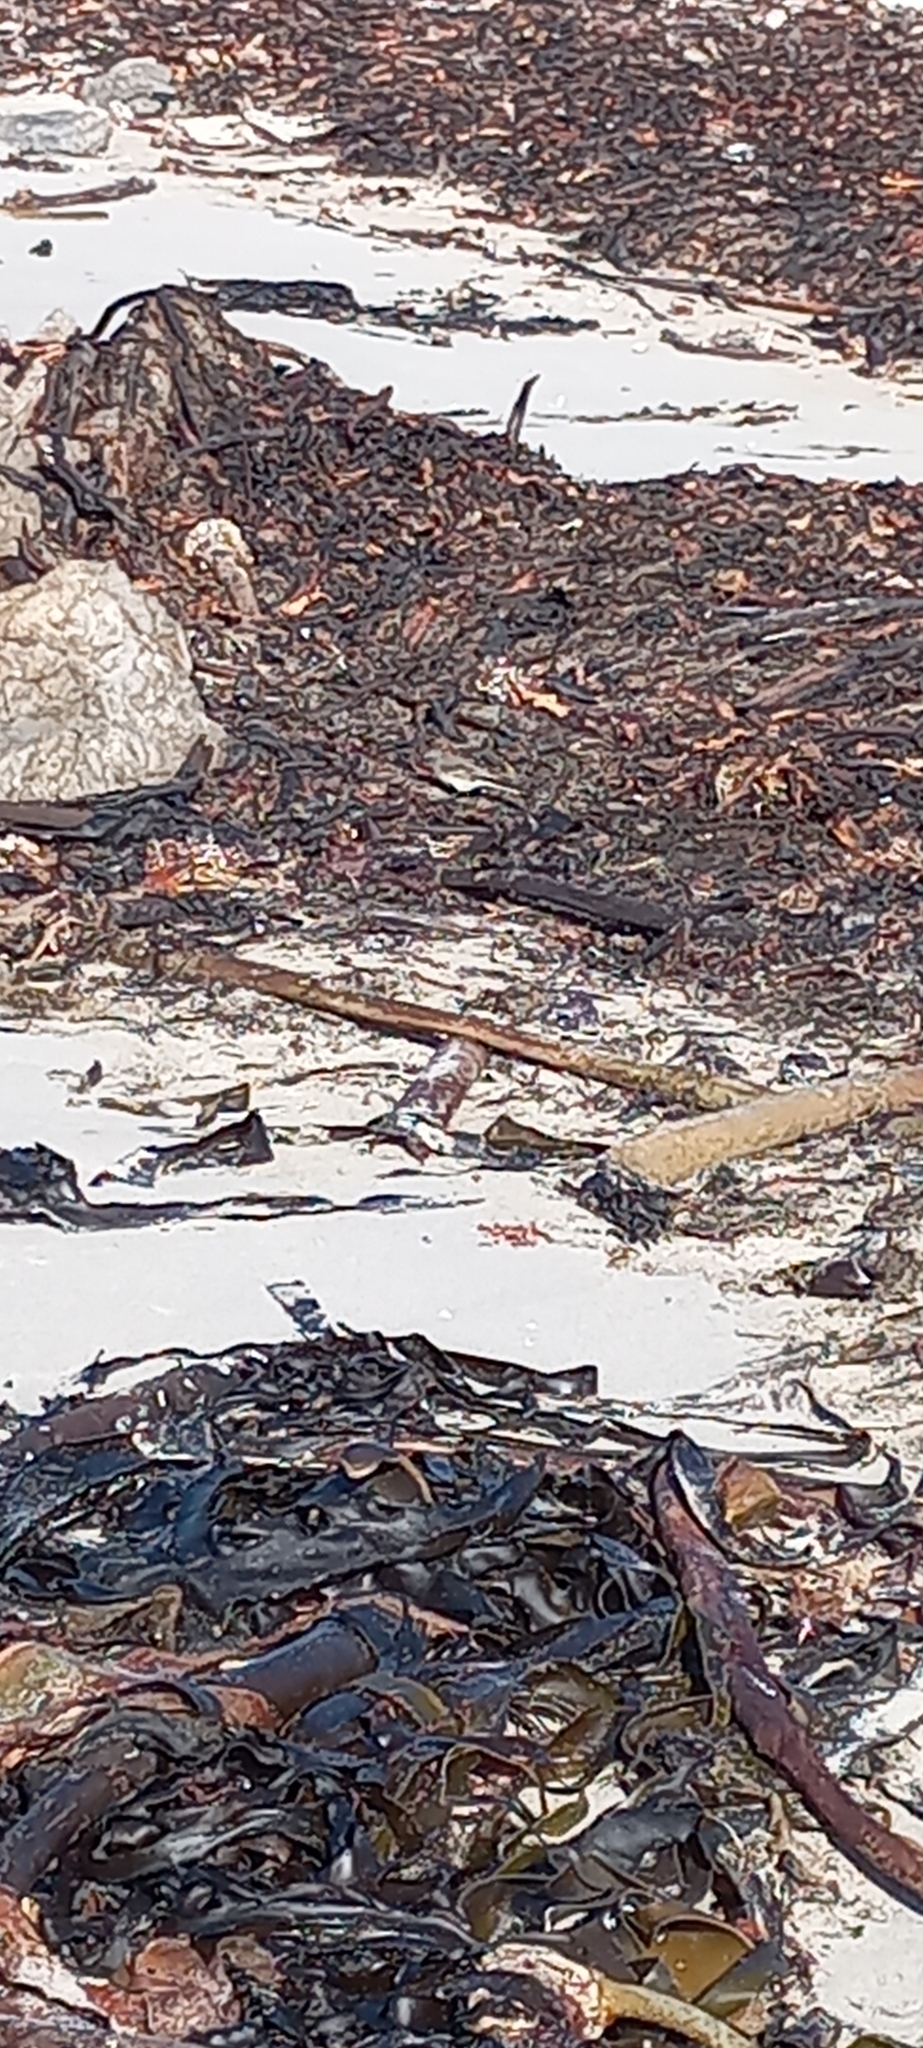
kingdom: Chromista
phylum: Ochrophyta
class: Phaeophyceae
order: Laminariales
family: Lessoniaceae
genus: Ecklonia
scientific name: Ecklonia
